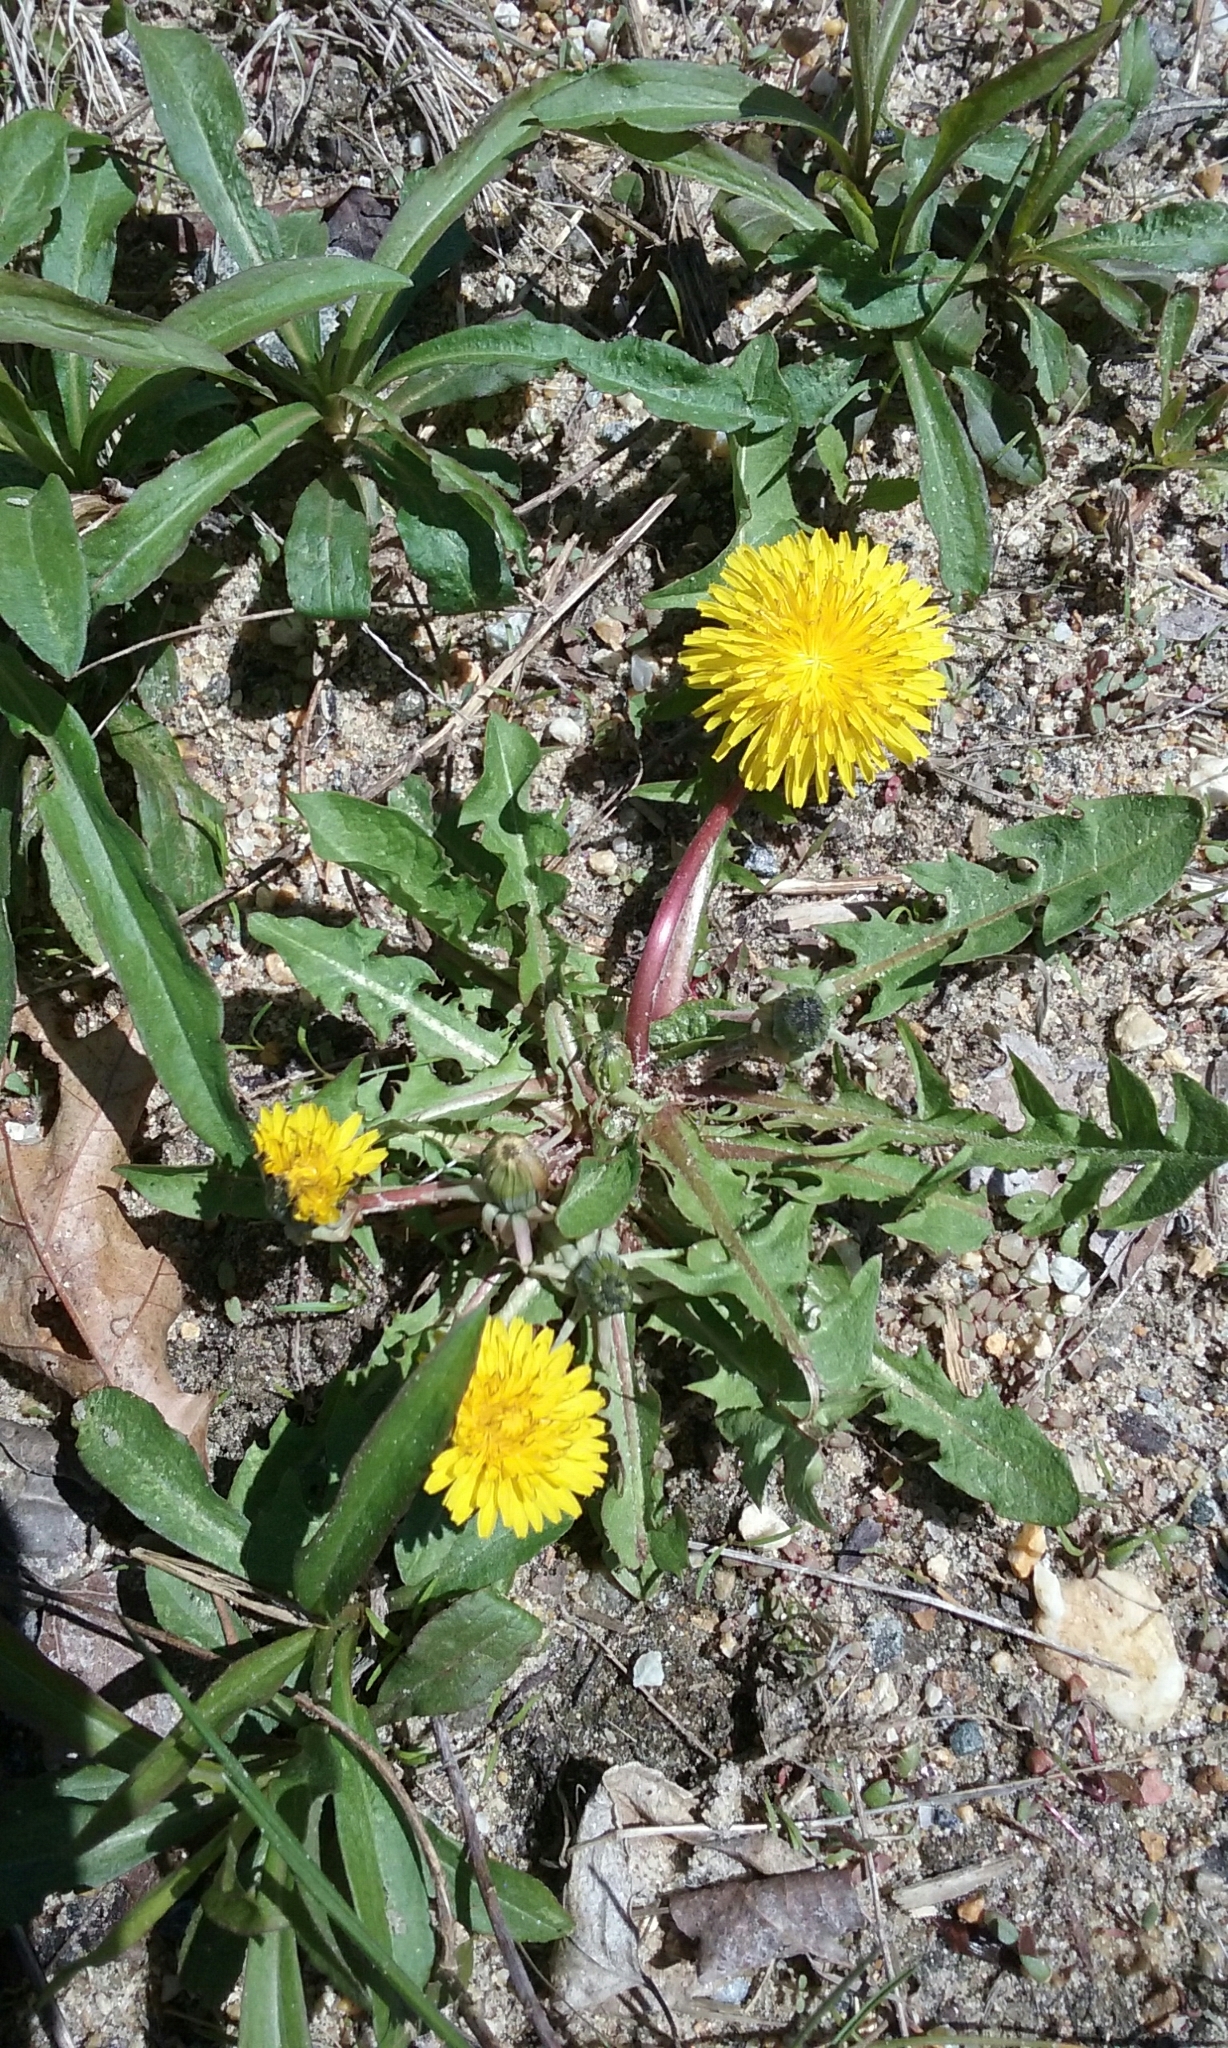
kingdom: Plantae
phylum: Tracheophyta
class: Magnoliopsida
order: Asterales
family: Asteraceae
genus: Taraxacum
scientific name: Taraxacum officinale
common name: Common dandelion
